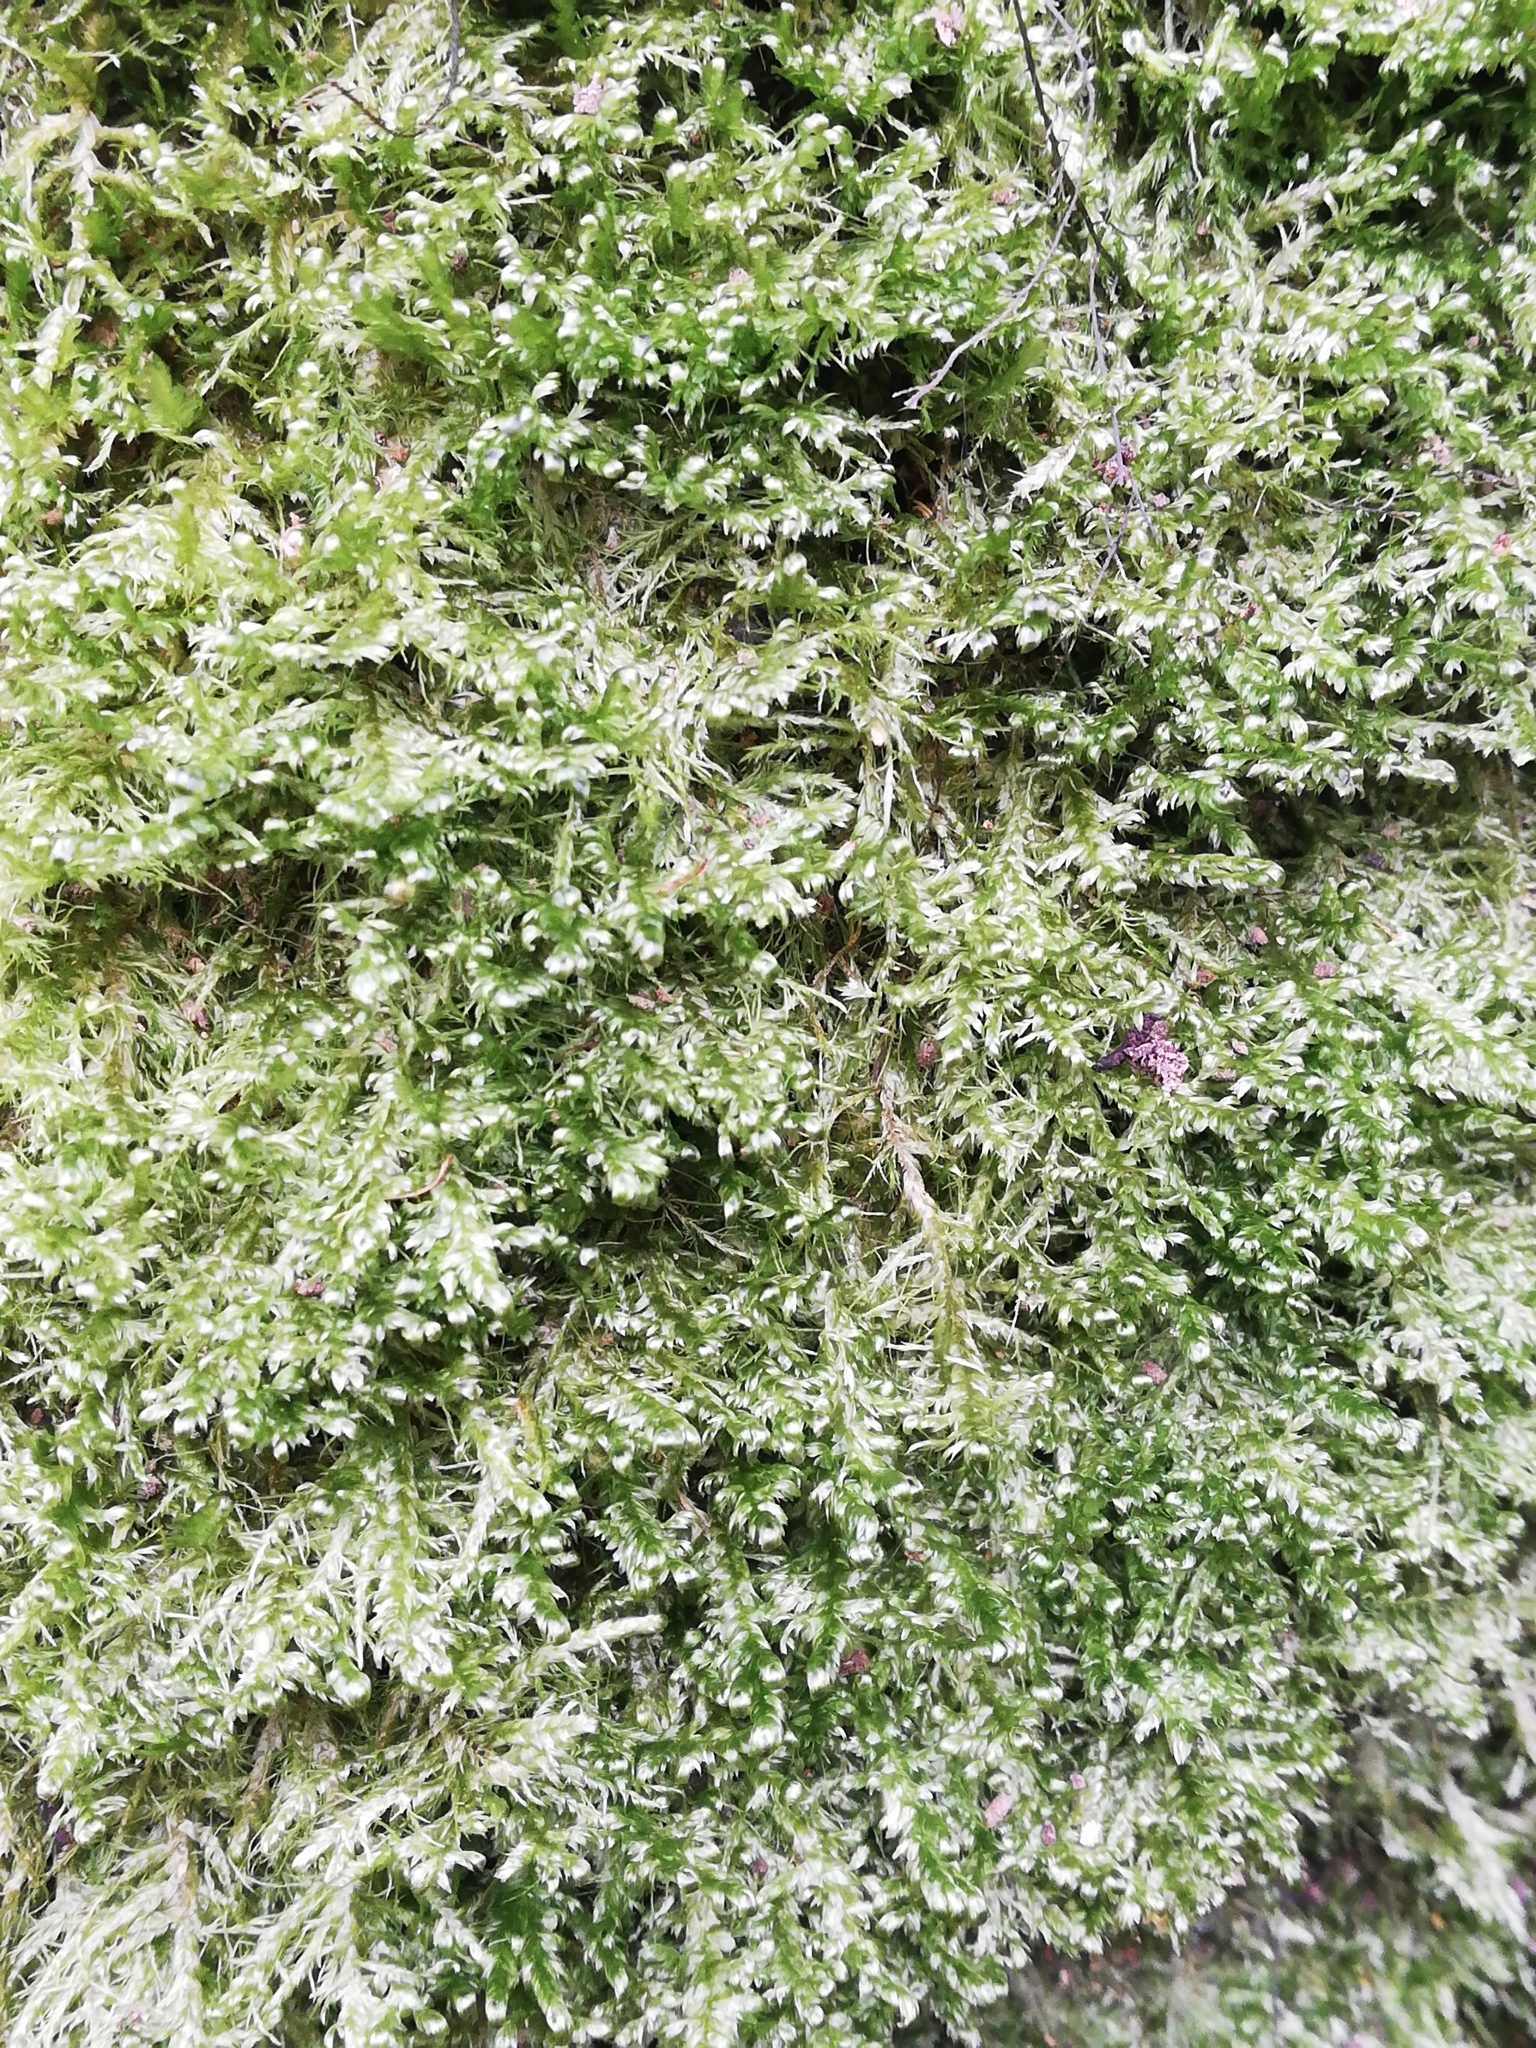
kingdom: Plantae
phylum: Bryophyta
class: Bryopsida
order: Hypnales
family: Neckeraceae
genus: Alleniella
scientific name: Alleniella complanata
